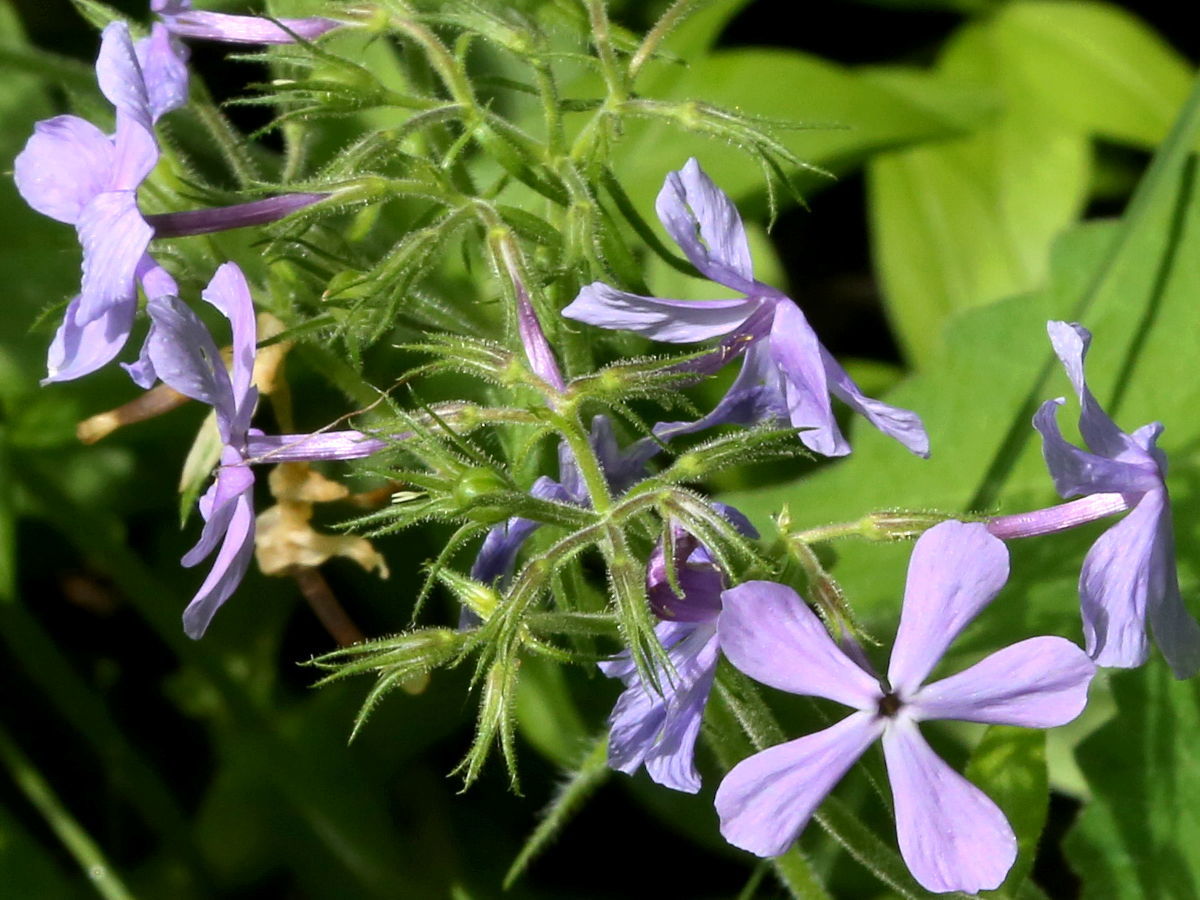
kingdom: Plantae
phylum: Tracheophyta
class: Magnoliopsida
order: Ericales
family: Polemoniaceae
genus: Phlox
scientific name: Phlox divaricata
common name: Blue phlox
